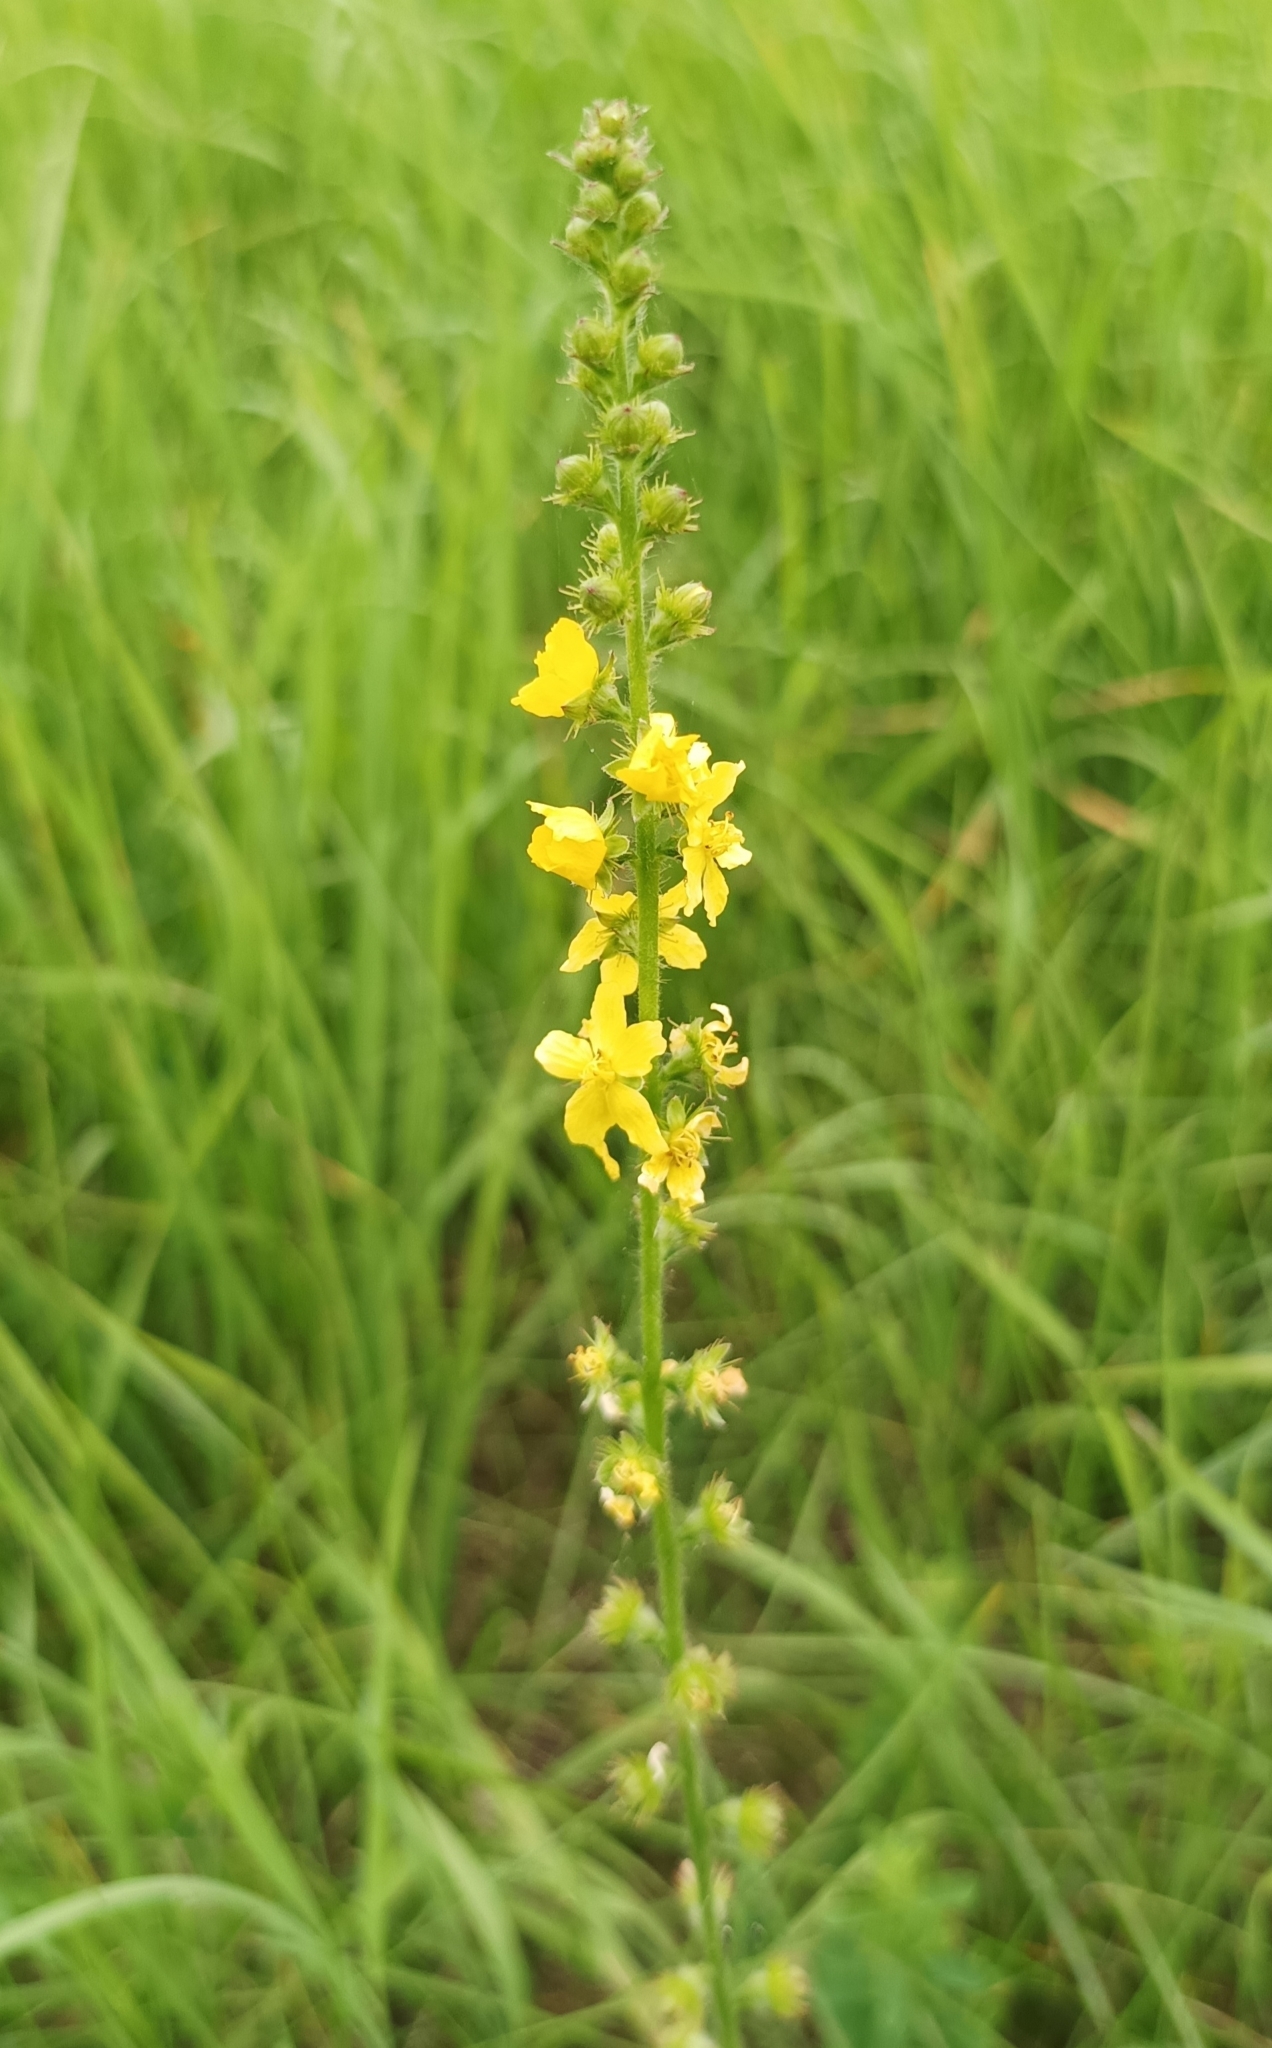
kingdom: Plantae
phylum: Tracheophyta
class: Magnoliopsida
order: Rosales
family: Rosaceae
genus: Agrimonia
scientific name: Agrimonia eupatoria
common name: Agrimony
